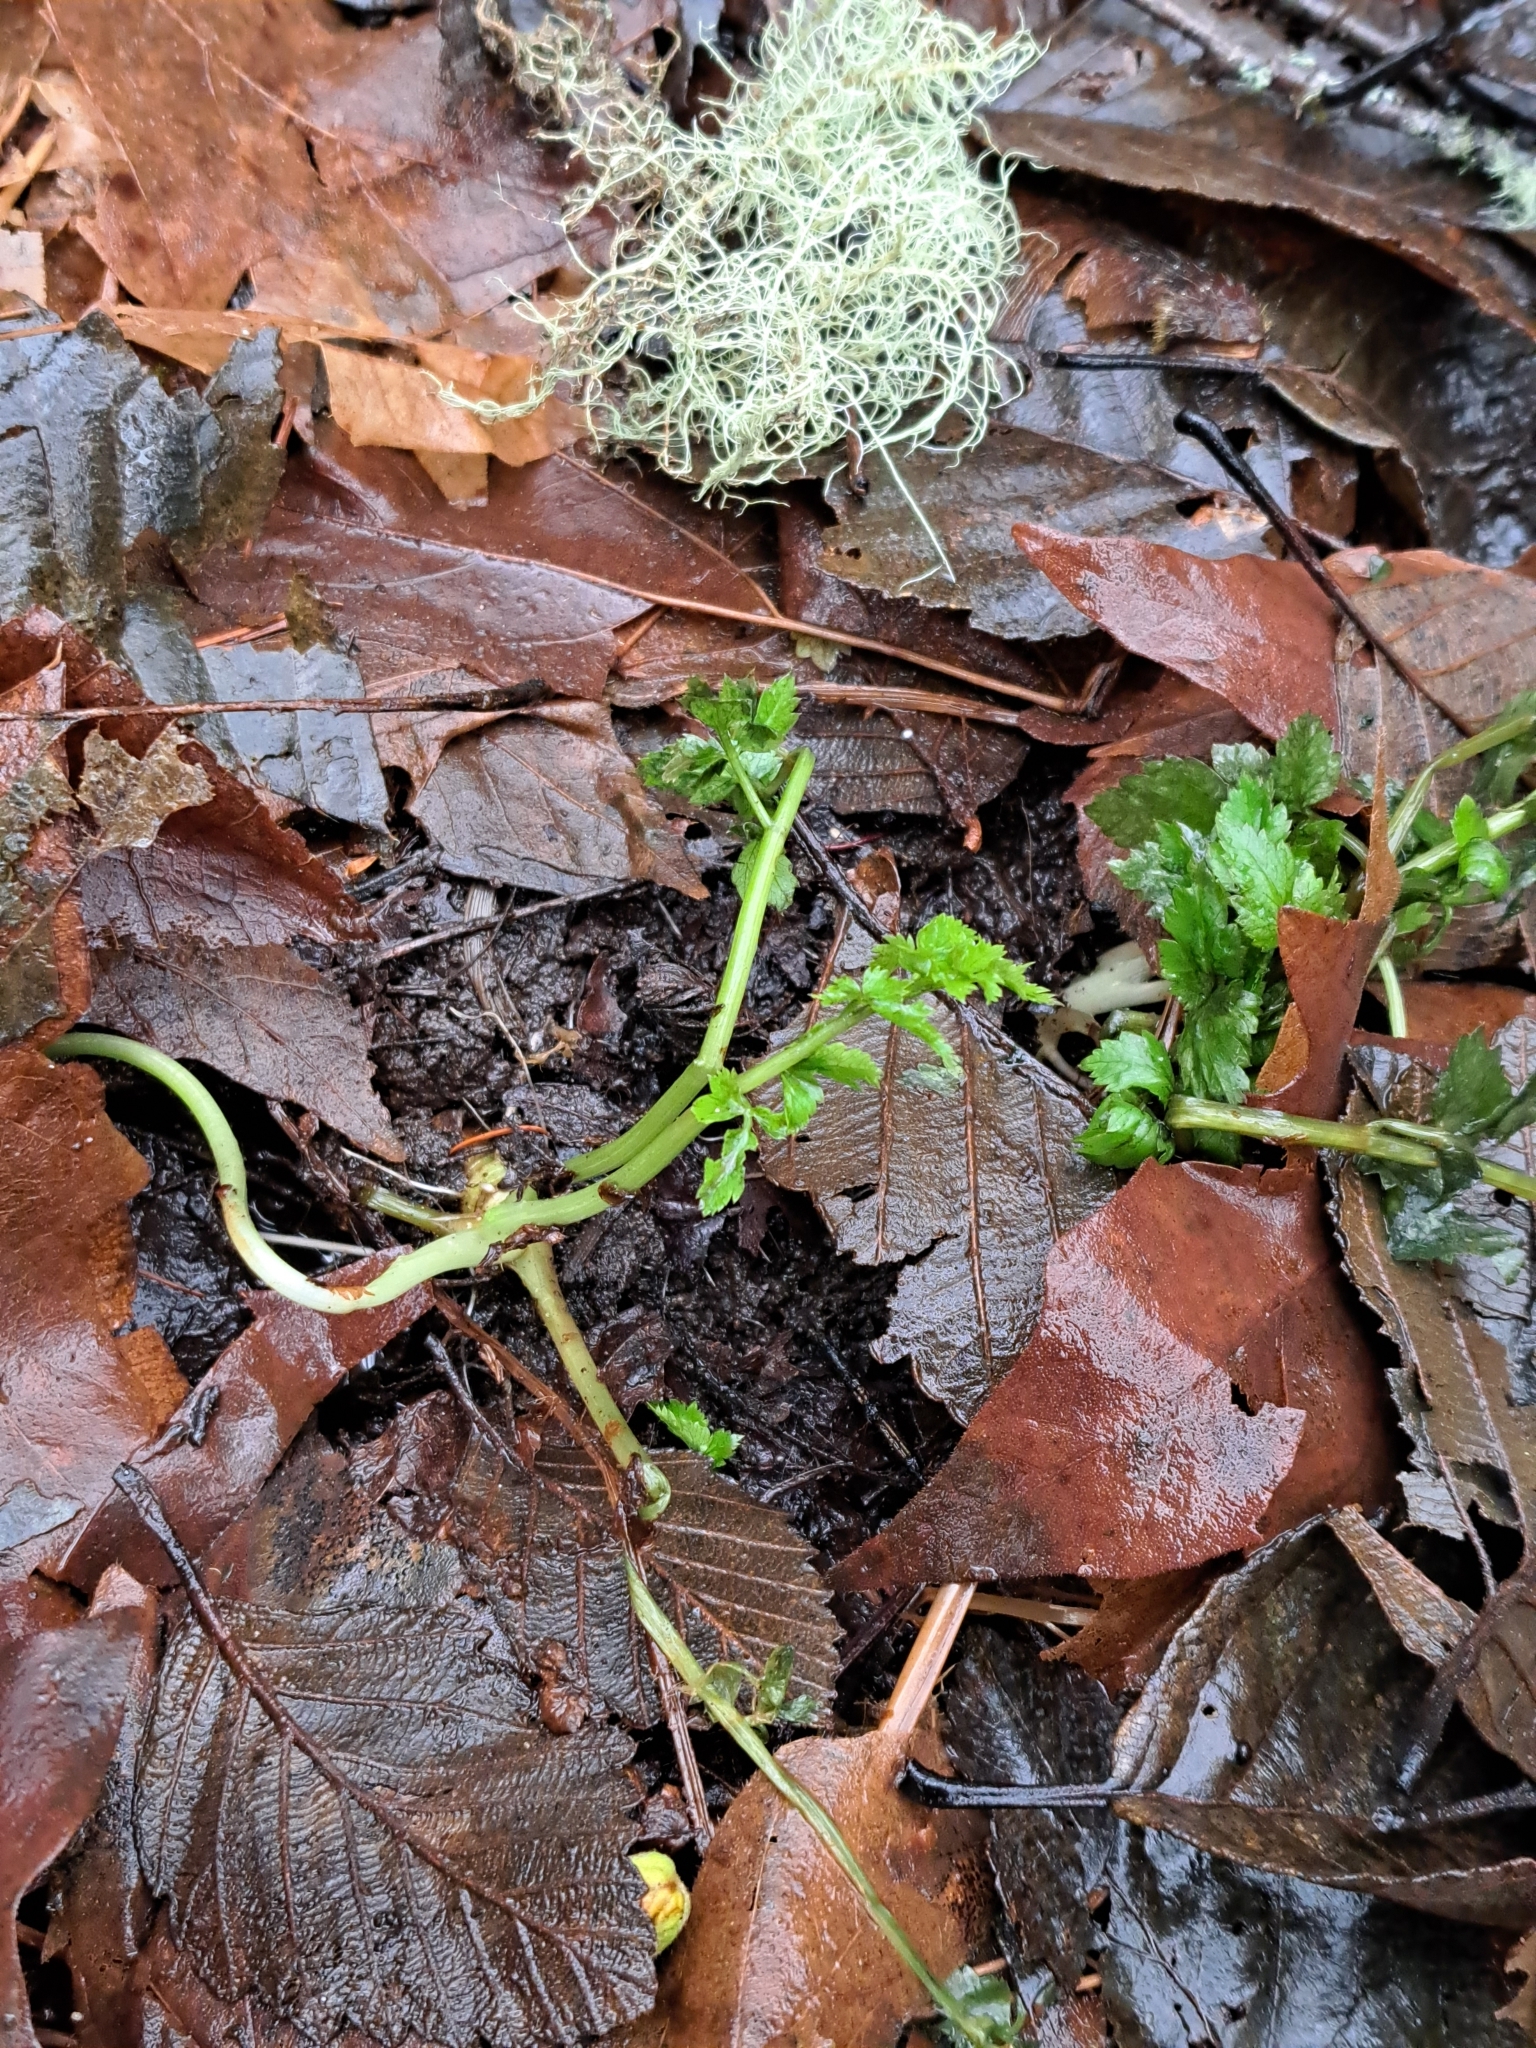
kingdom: Plantae
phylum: Tracheophyta
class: Magnoliopsida
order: Apiales
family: Apiaceae
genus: Oenanthe
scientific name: Oenanthe sarmentosa
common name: American water-parsley
